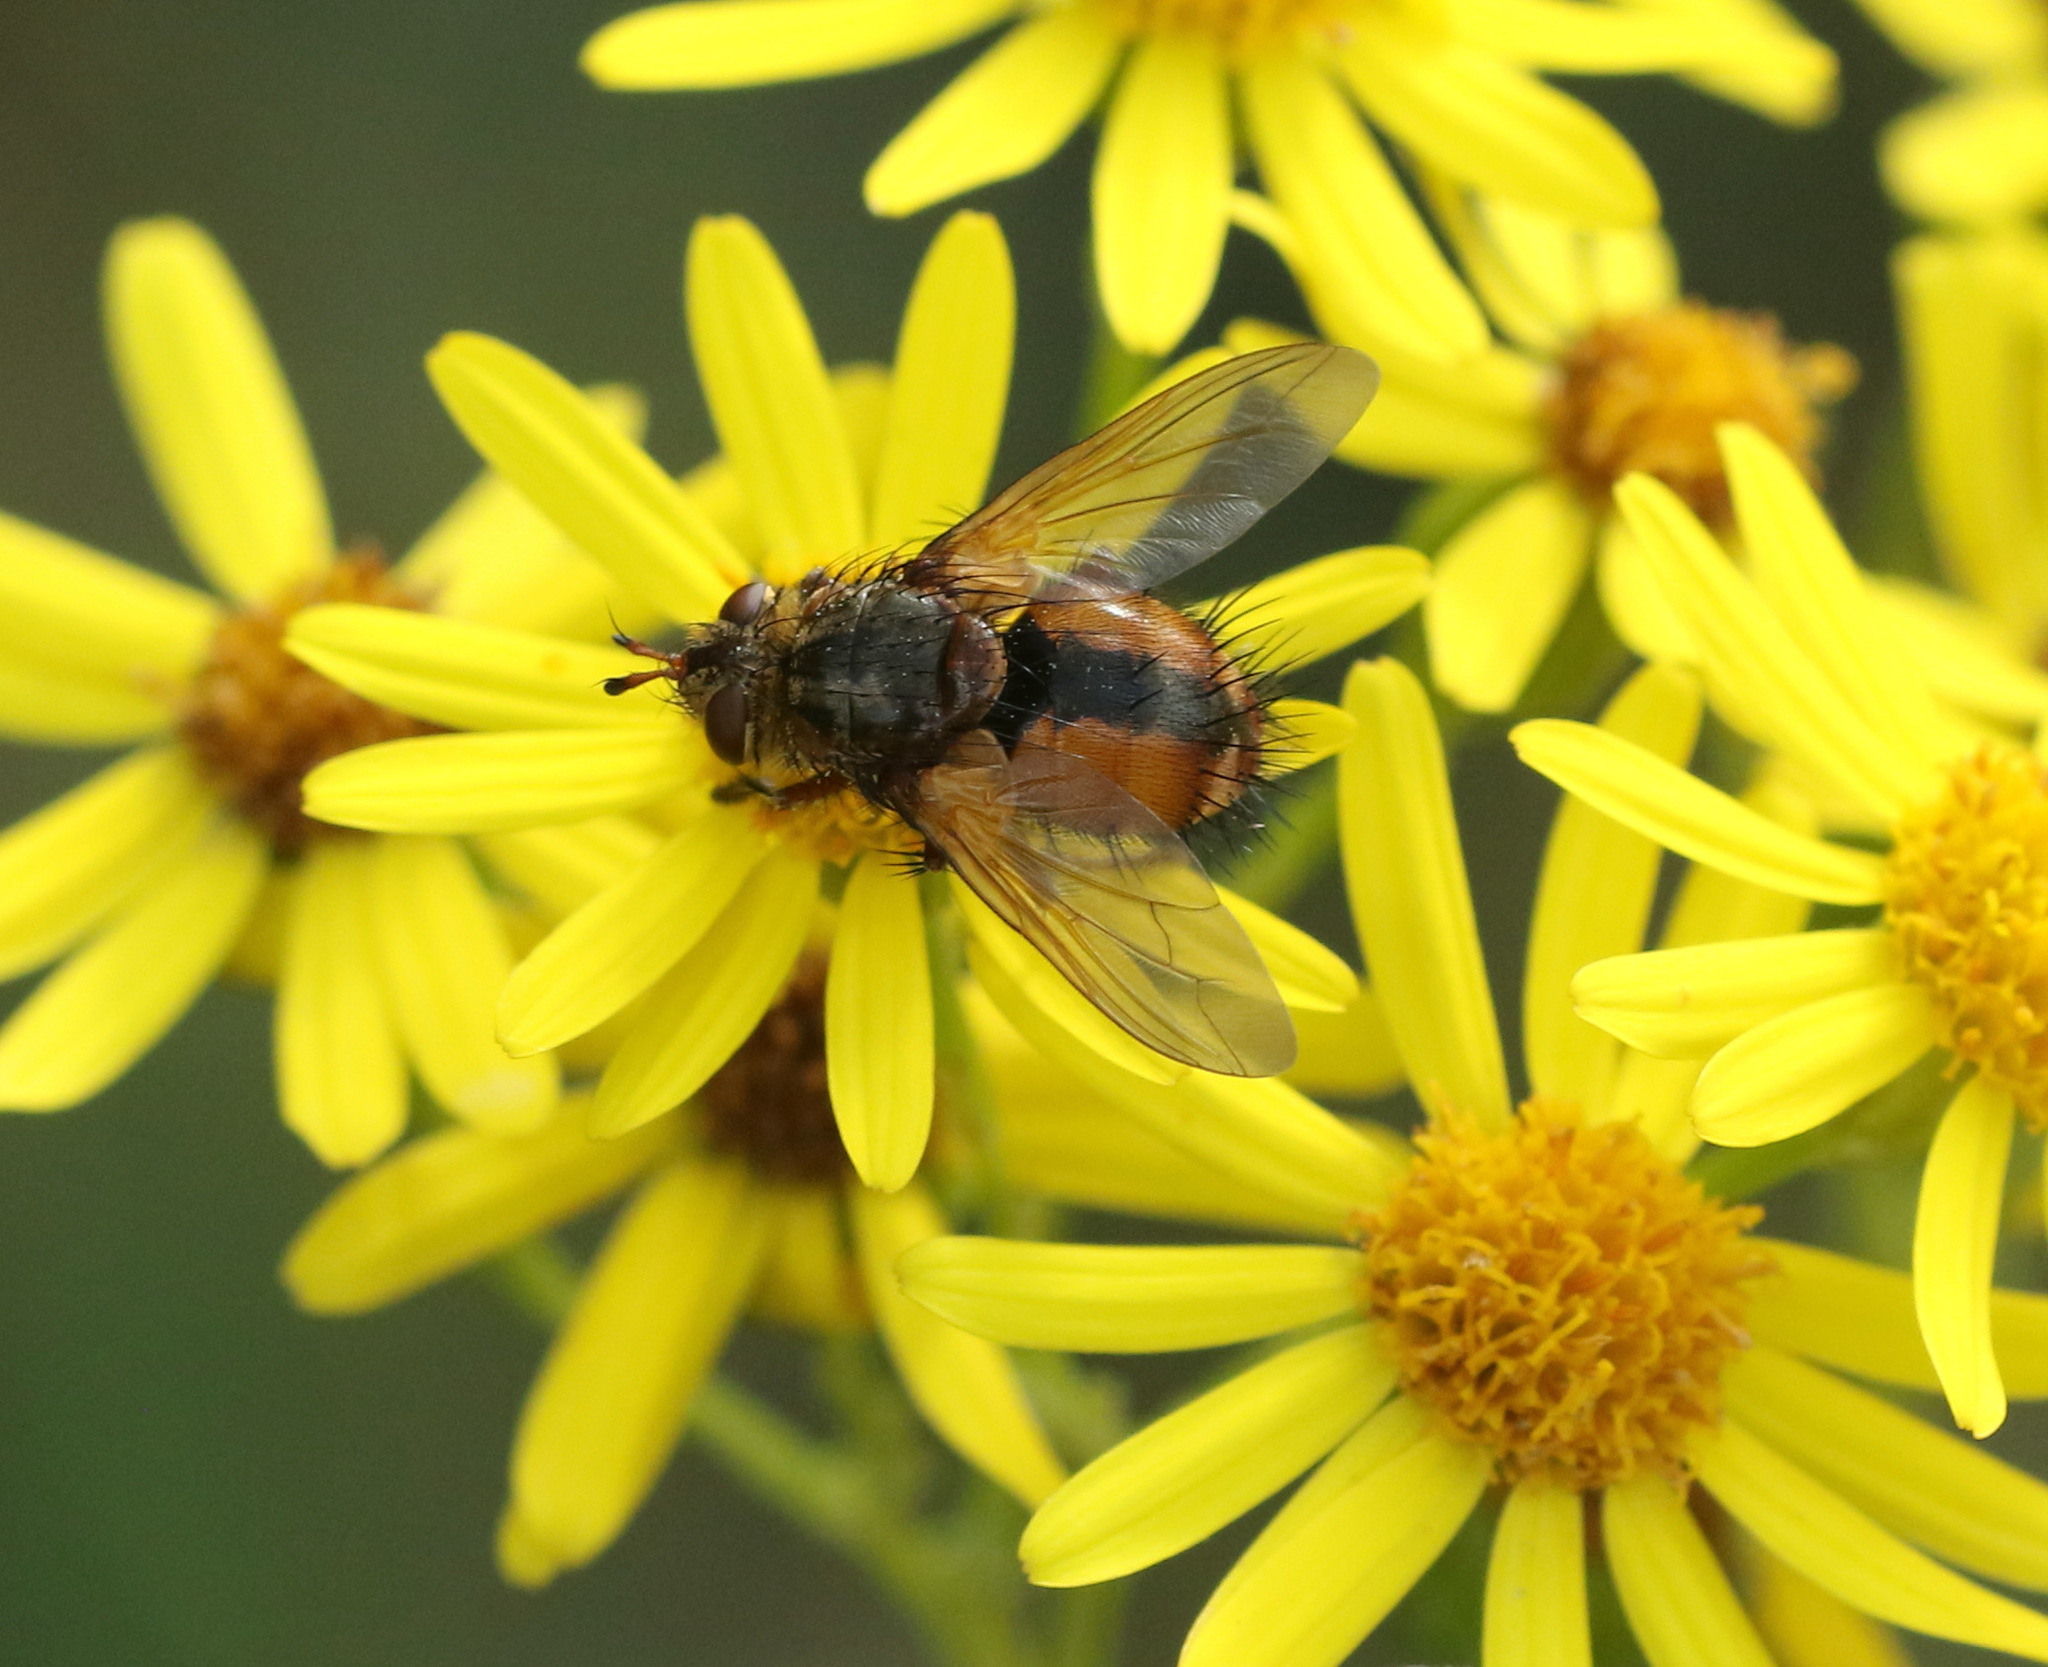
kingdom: Animalia
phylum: Arthropoda
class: Insecta
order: Diptera
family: Tachinidae
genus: Tachina
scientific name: Tachina fera
